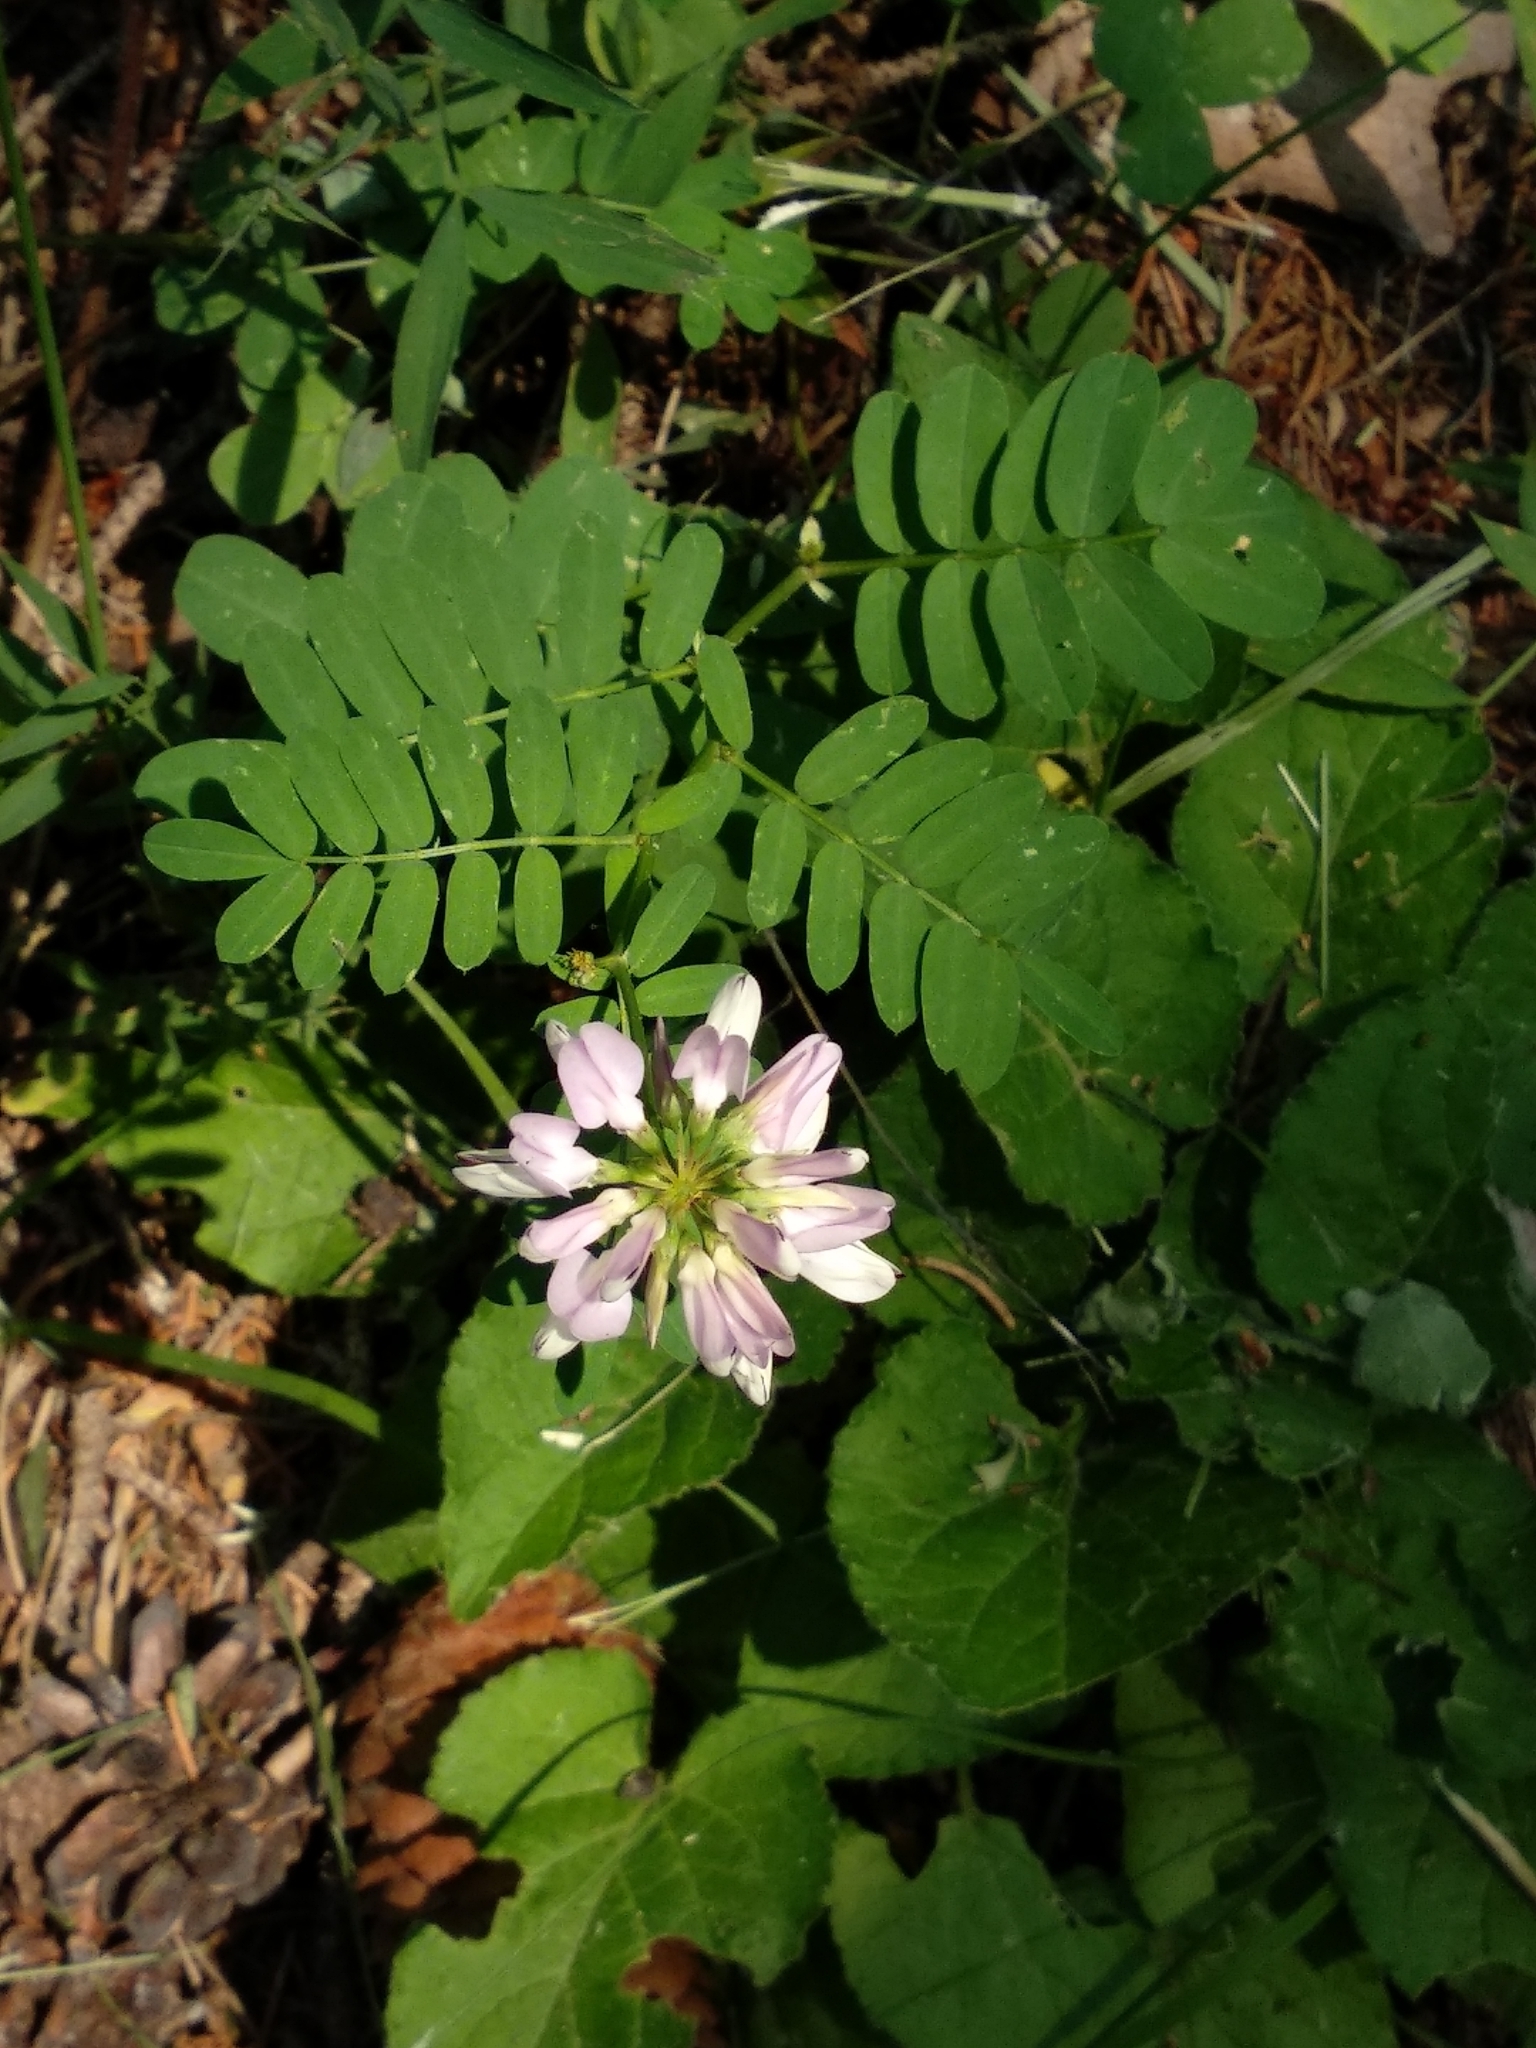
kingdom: Plantae
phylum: Tracheophyta
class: Magnoliopsida
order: Fabales
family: Fabaceae
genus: Coronilla
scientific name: Coronilla varia
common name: Crownvetch
